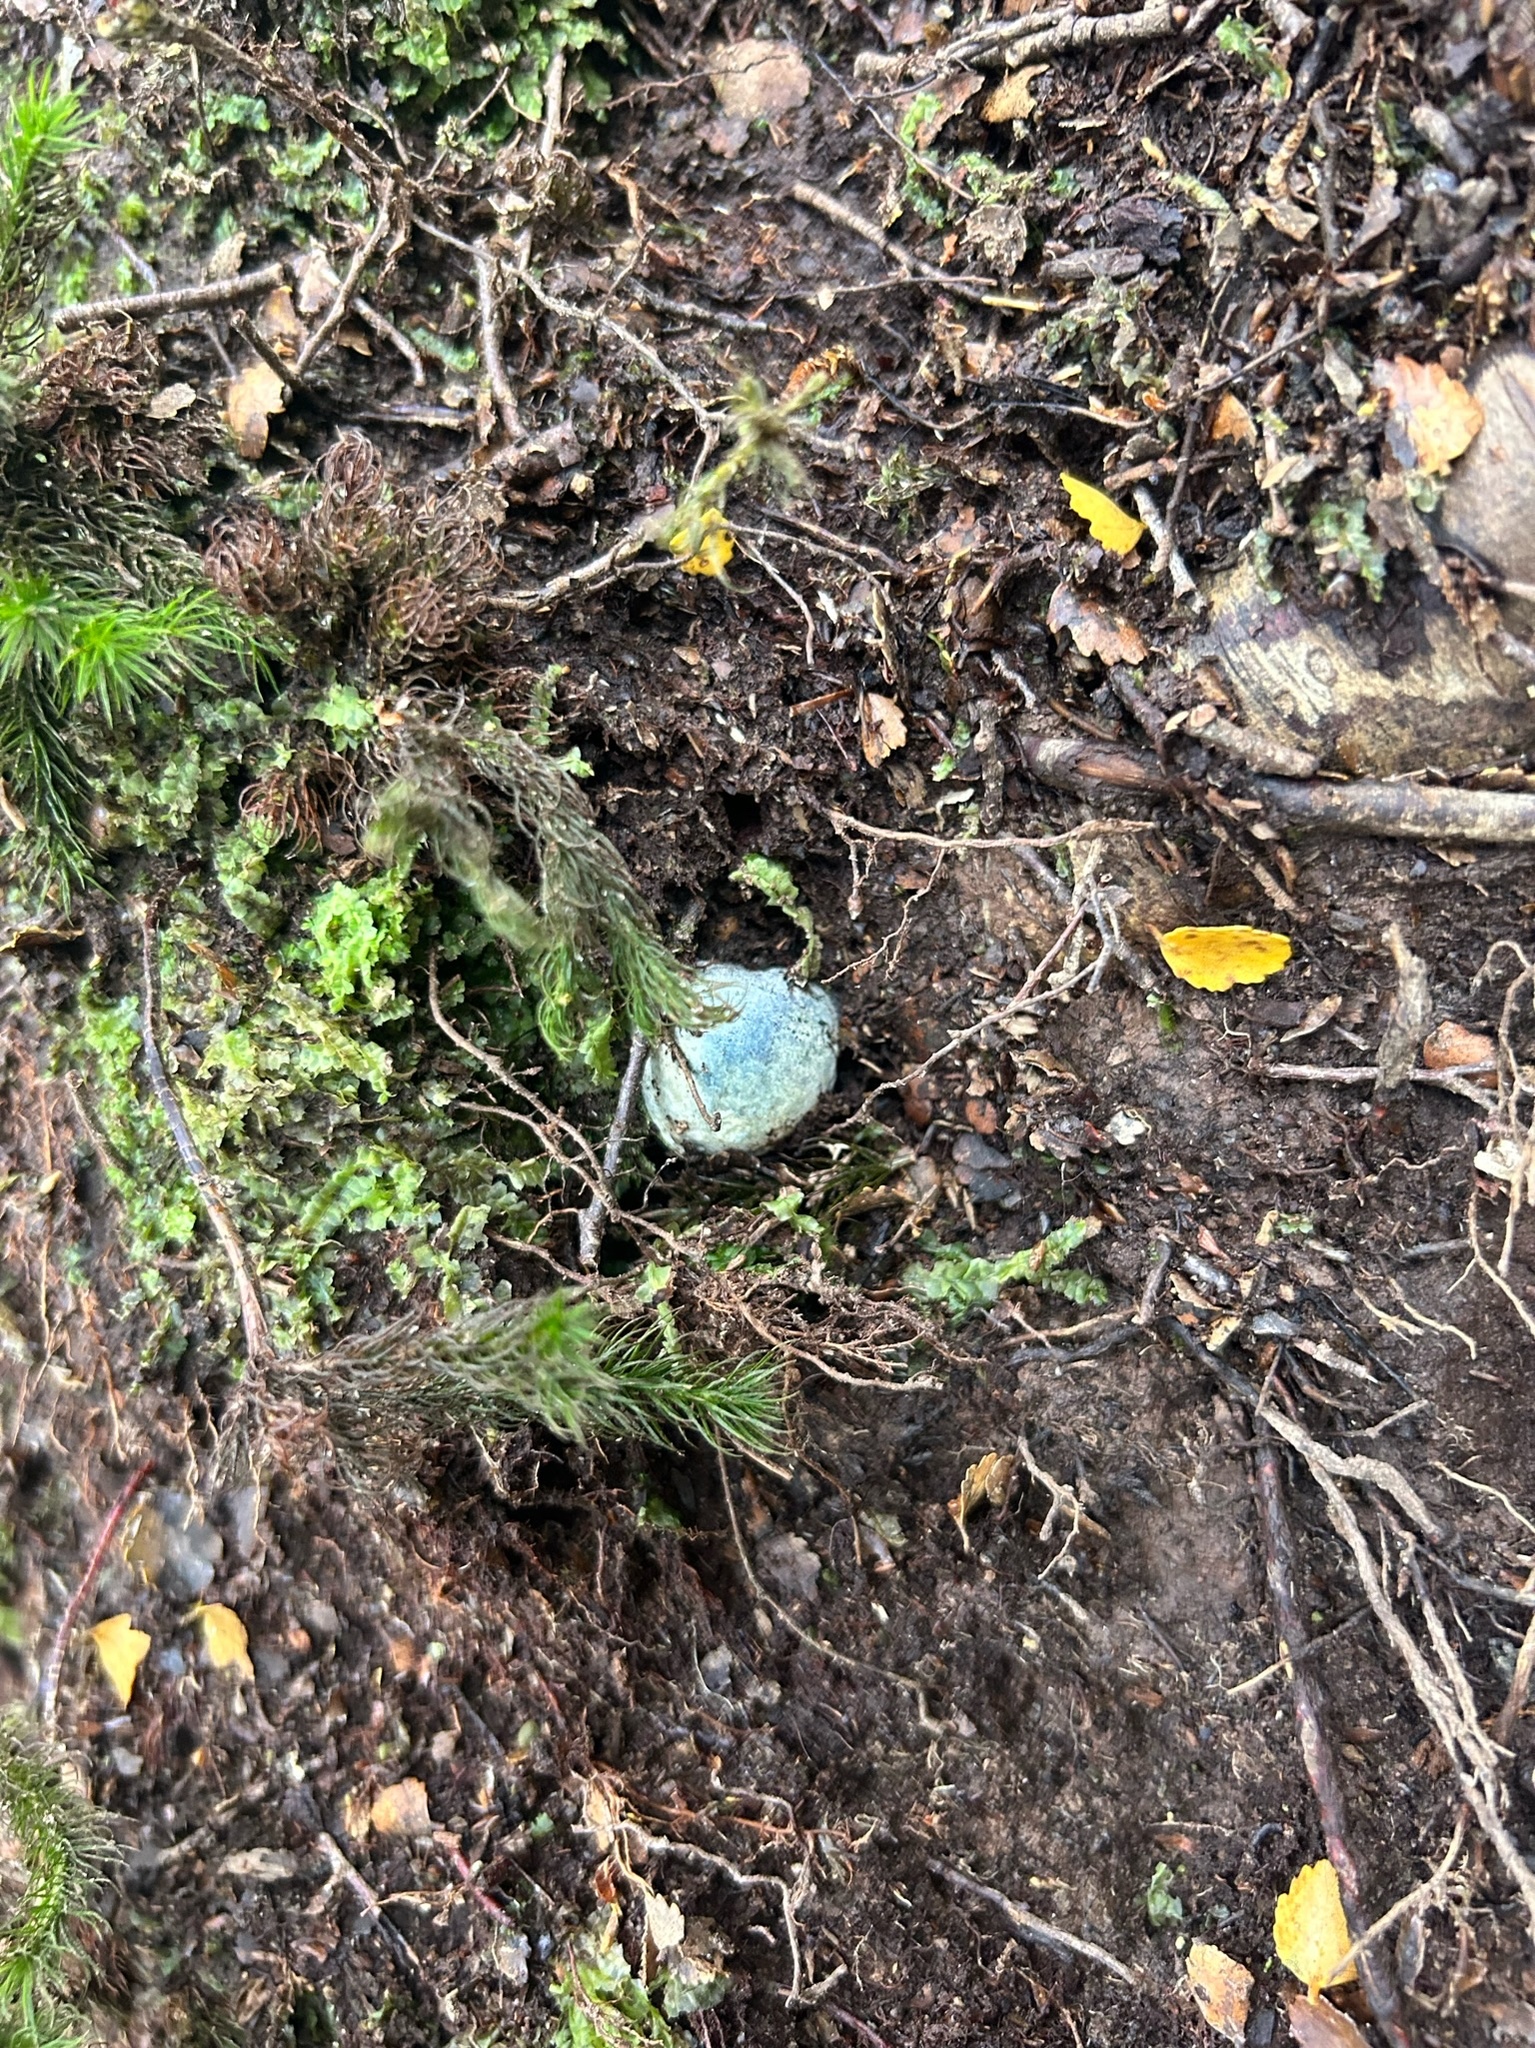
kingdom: Fungi
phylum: Basidiomycota
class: Agaricomycetes
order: Boletales
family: Boletaceae
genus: Leccinum
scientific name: Leccinum pachyderme
